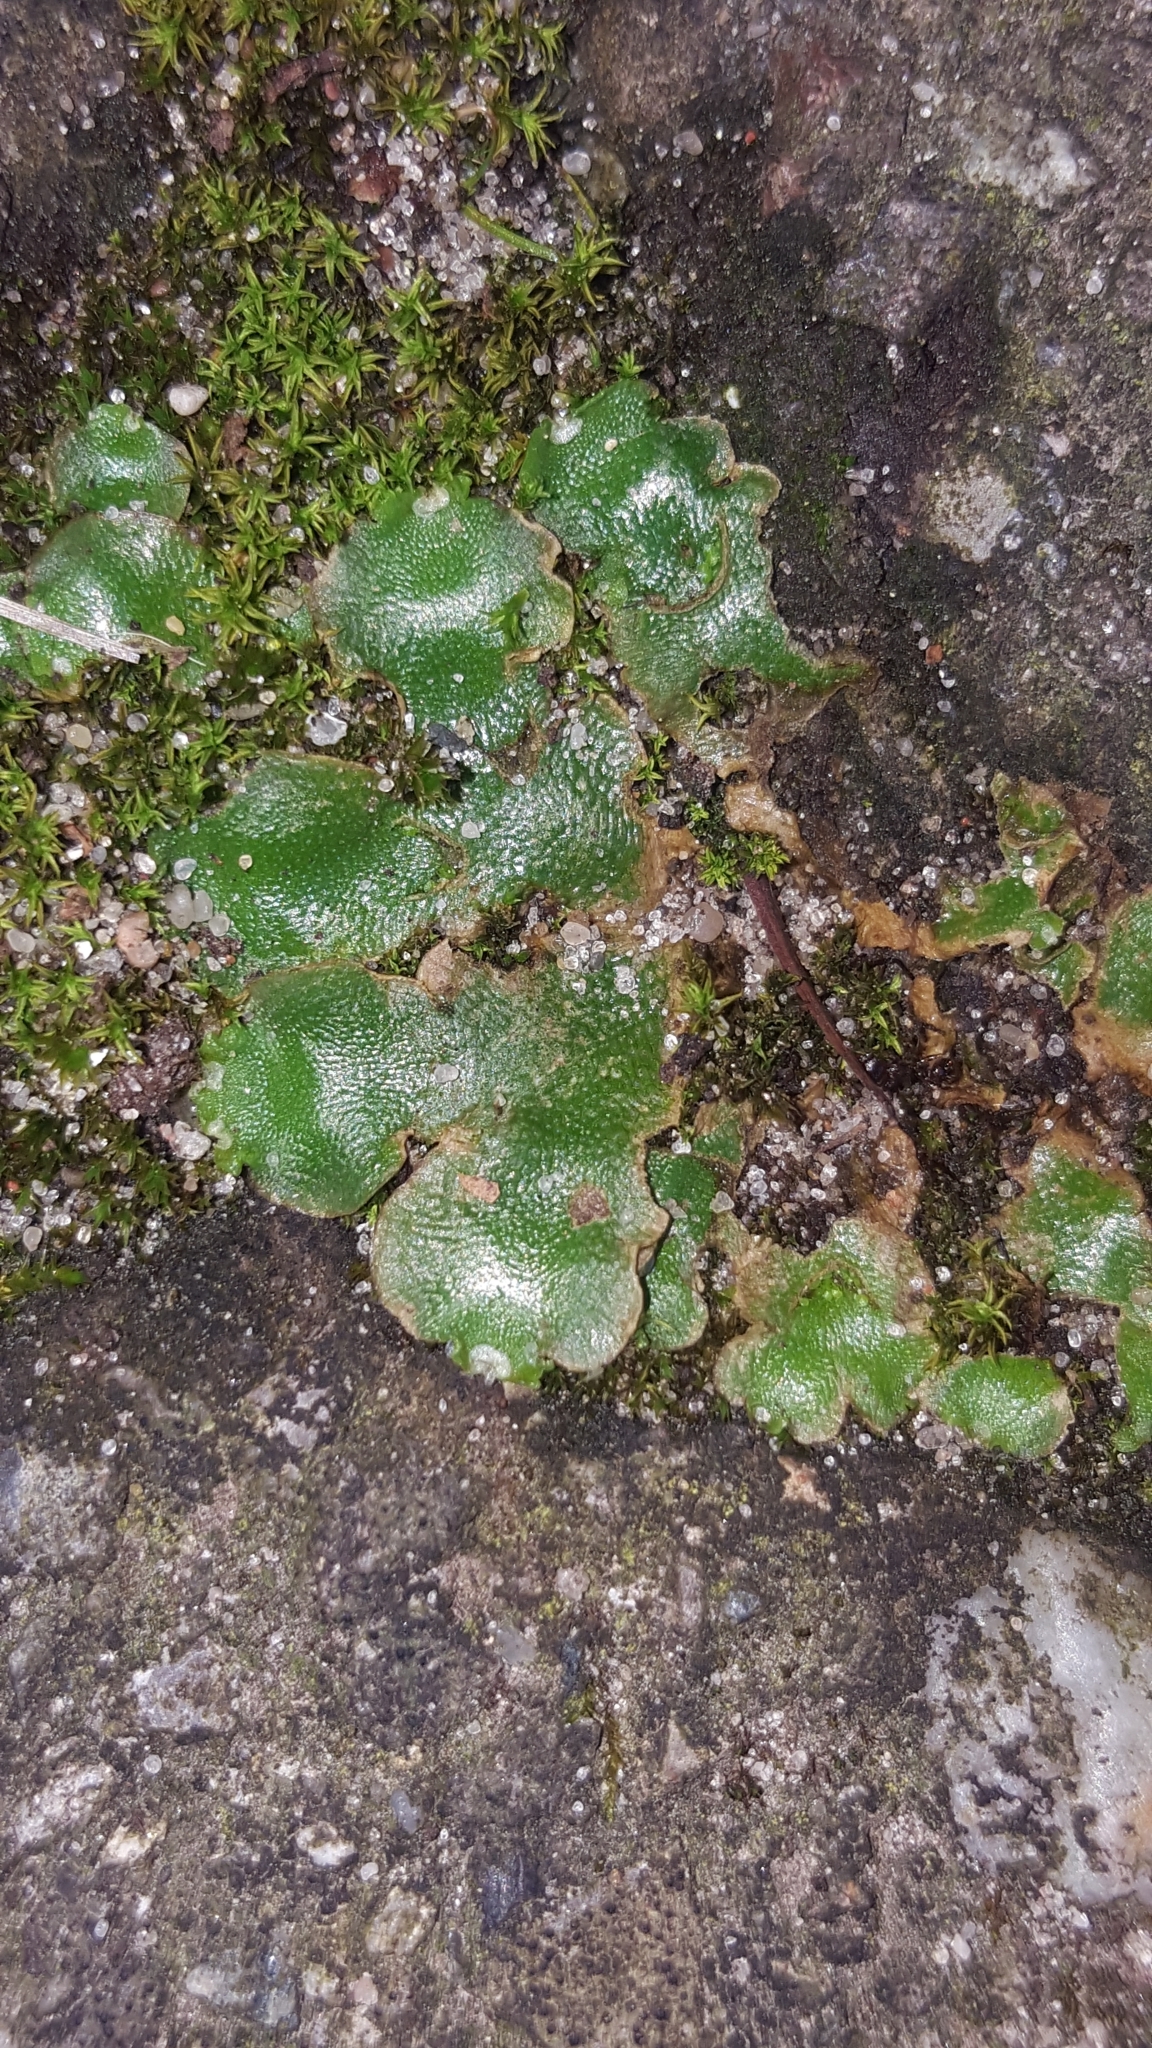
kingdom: Plantae
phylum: Marchantiophyta
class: Marchantiopsida
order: Lunulariales
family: Lunulariaceae
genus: Lunularia
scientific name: Lunularia cruciata
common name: Crescent-cup liverwort
